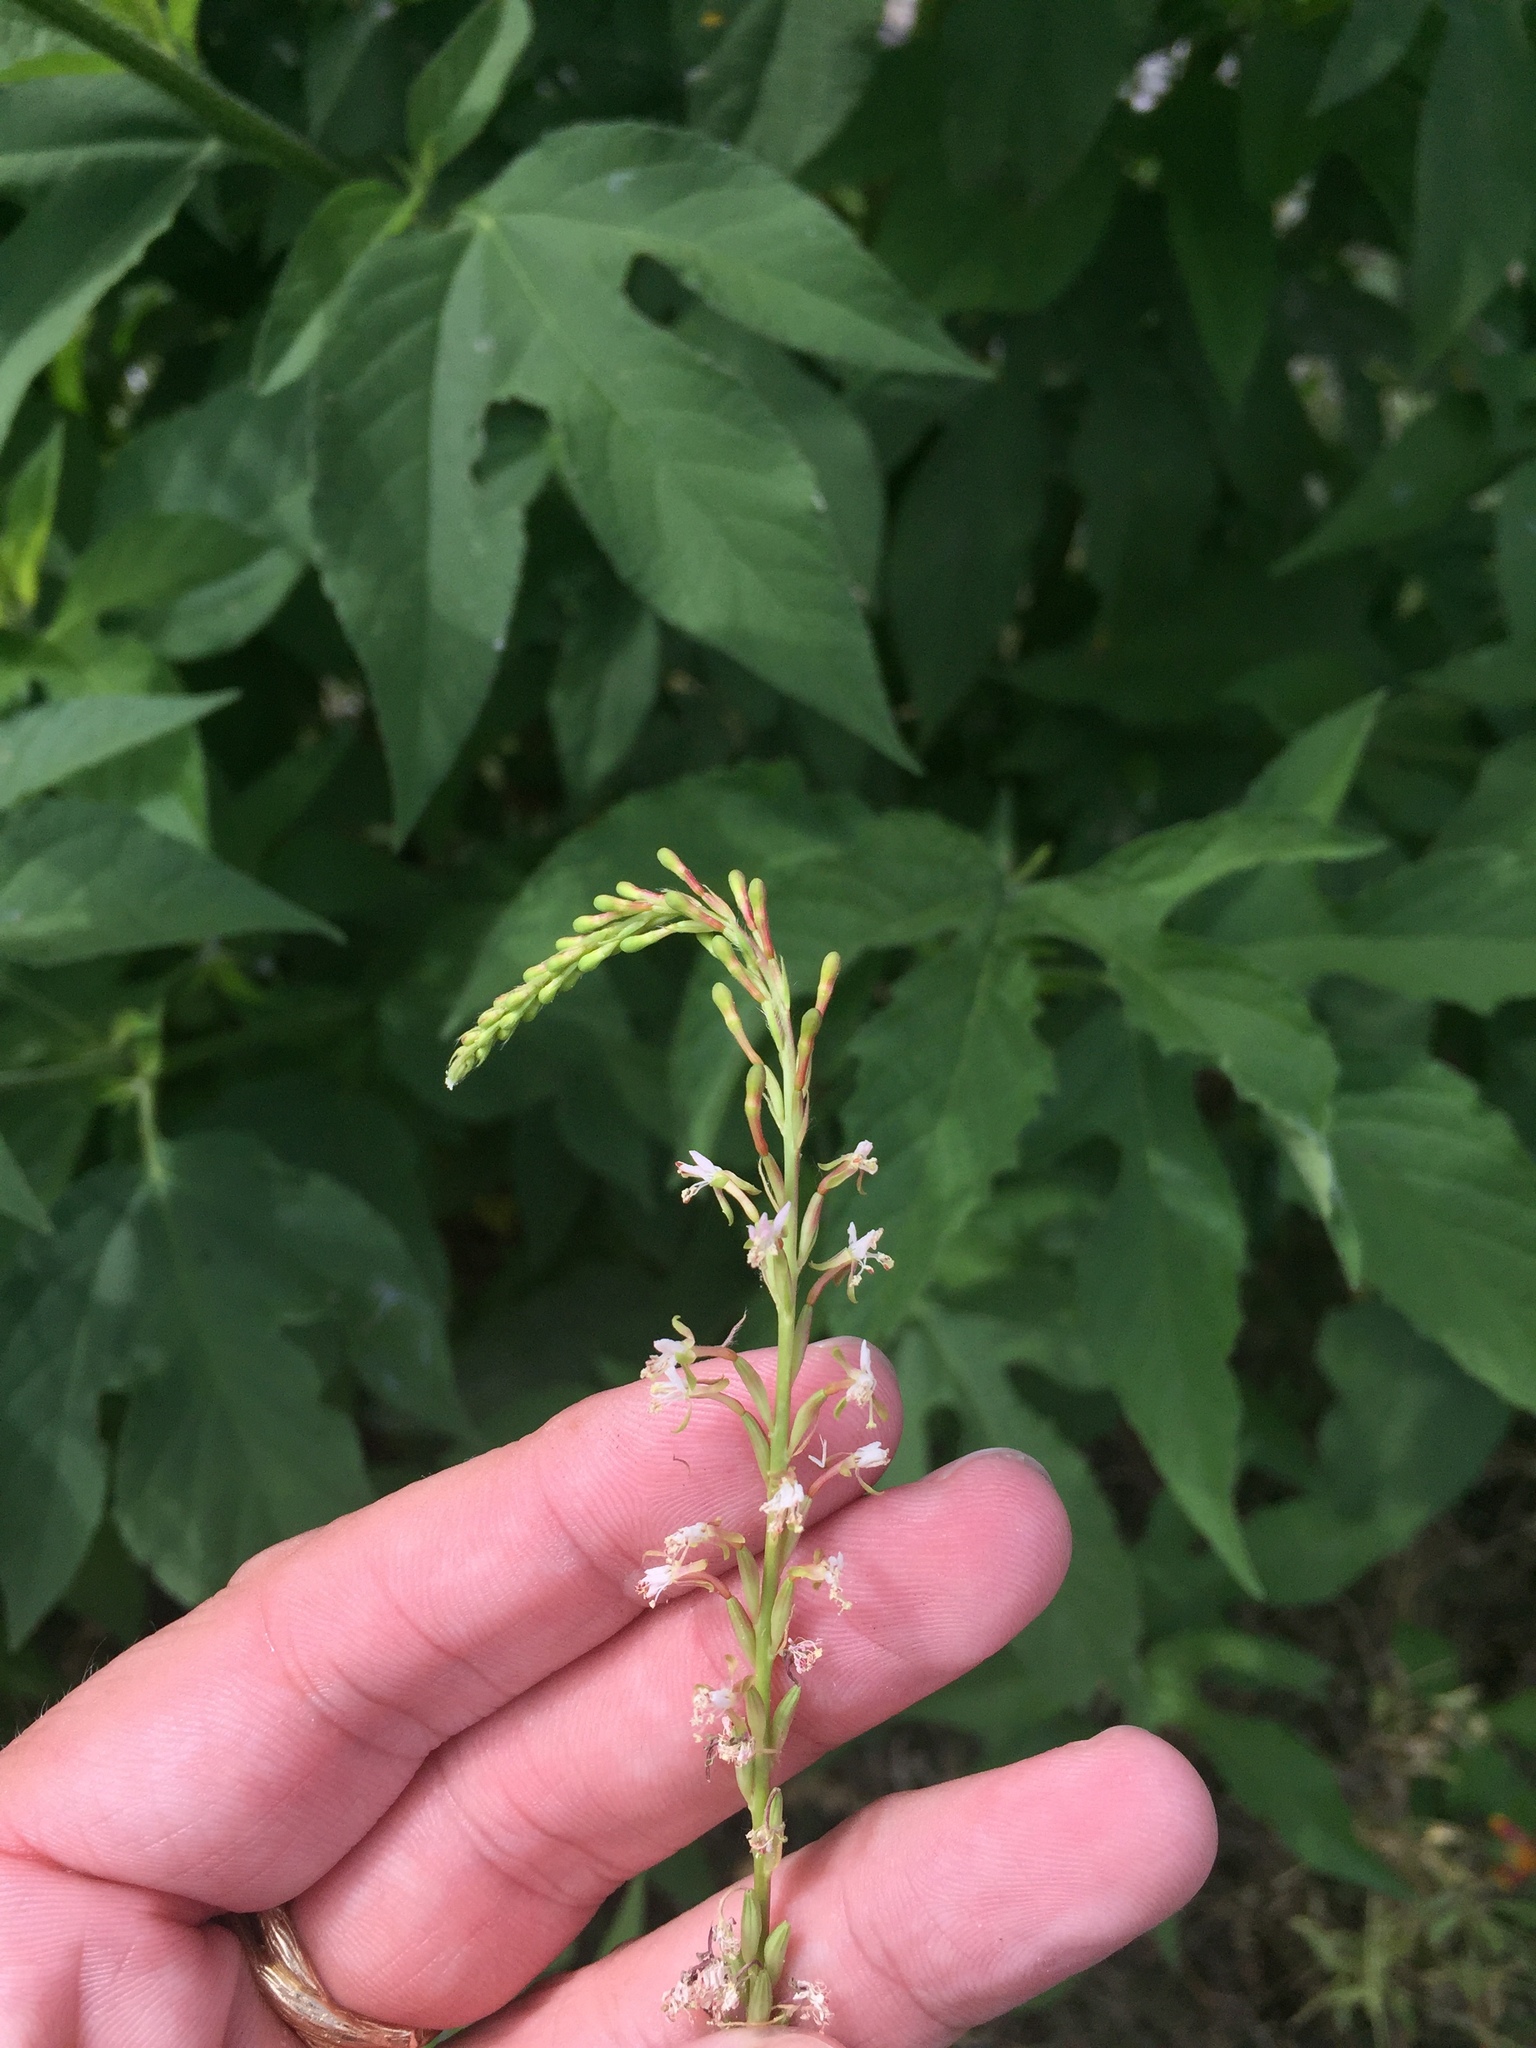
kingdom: Plantae
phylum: Tracheophyta
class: Magnoliopsida
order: Myrtales
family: Onagraceae
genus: Oenothera
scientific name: Oenothera curtiflora
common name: Velvetweed
